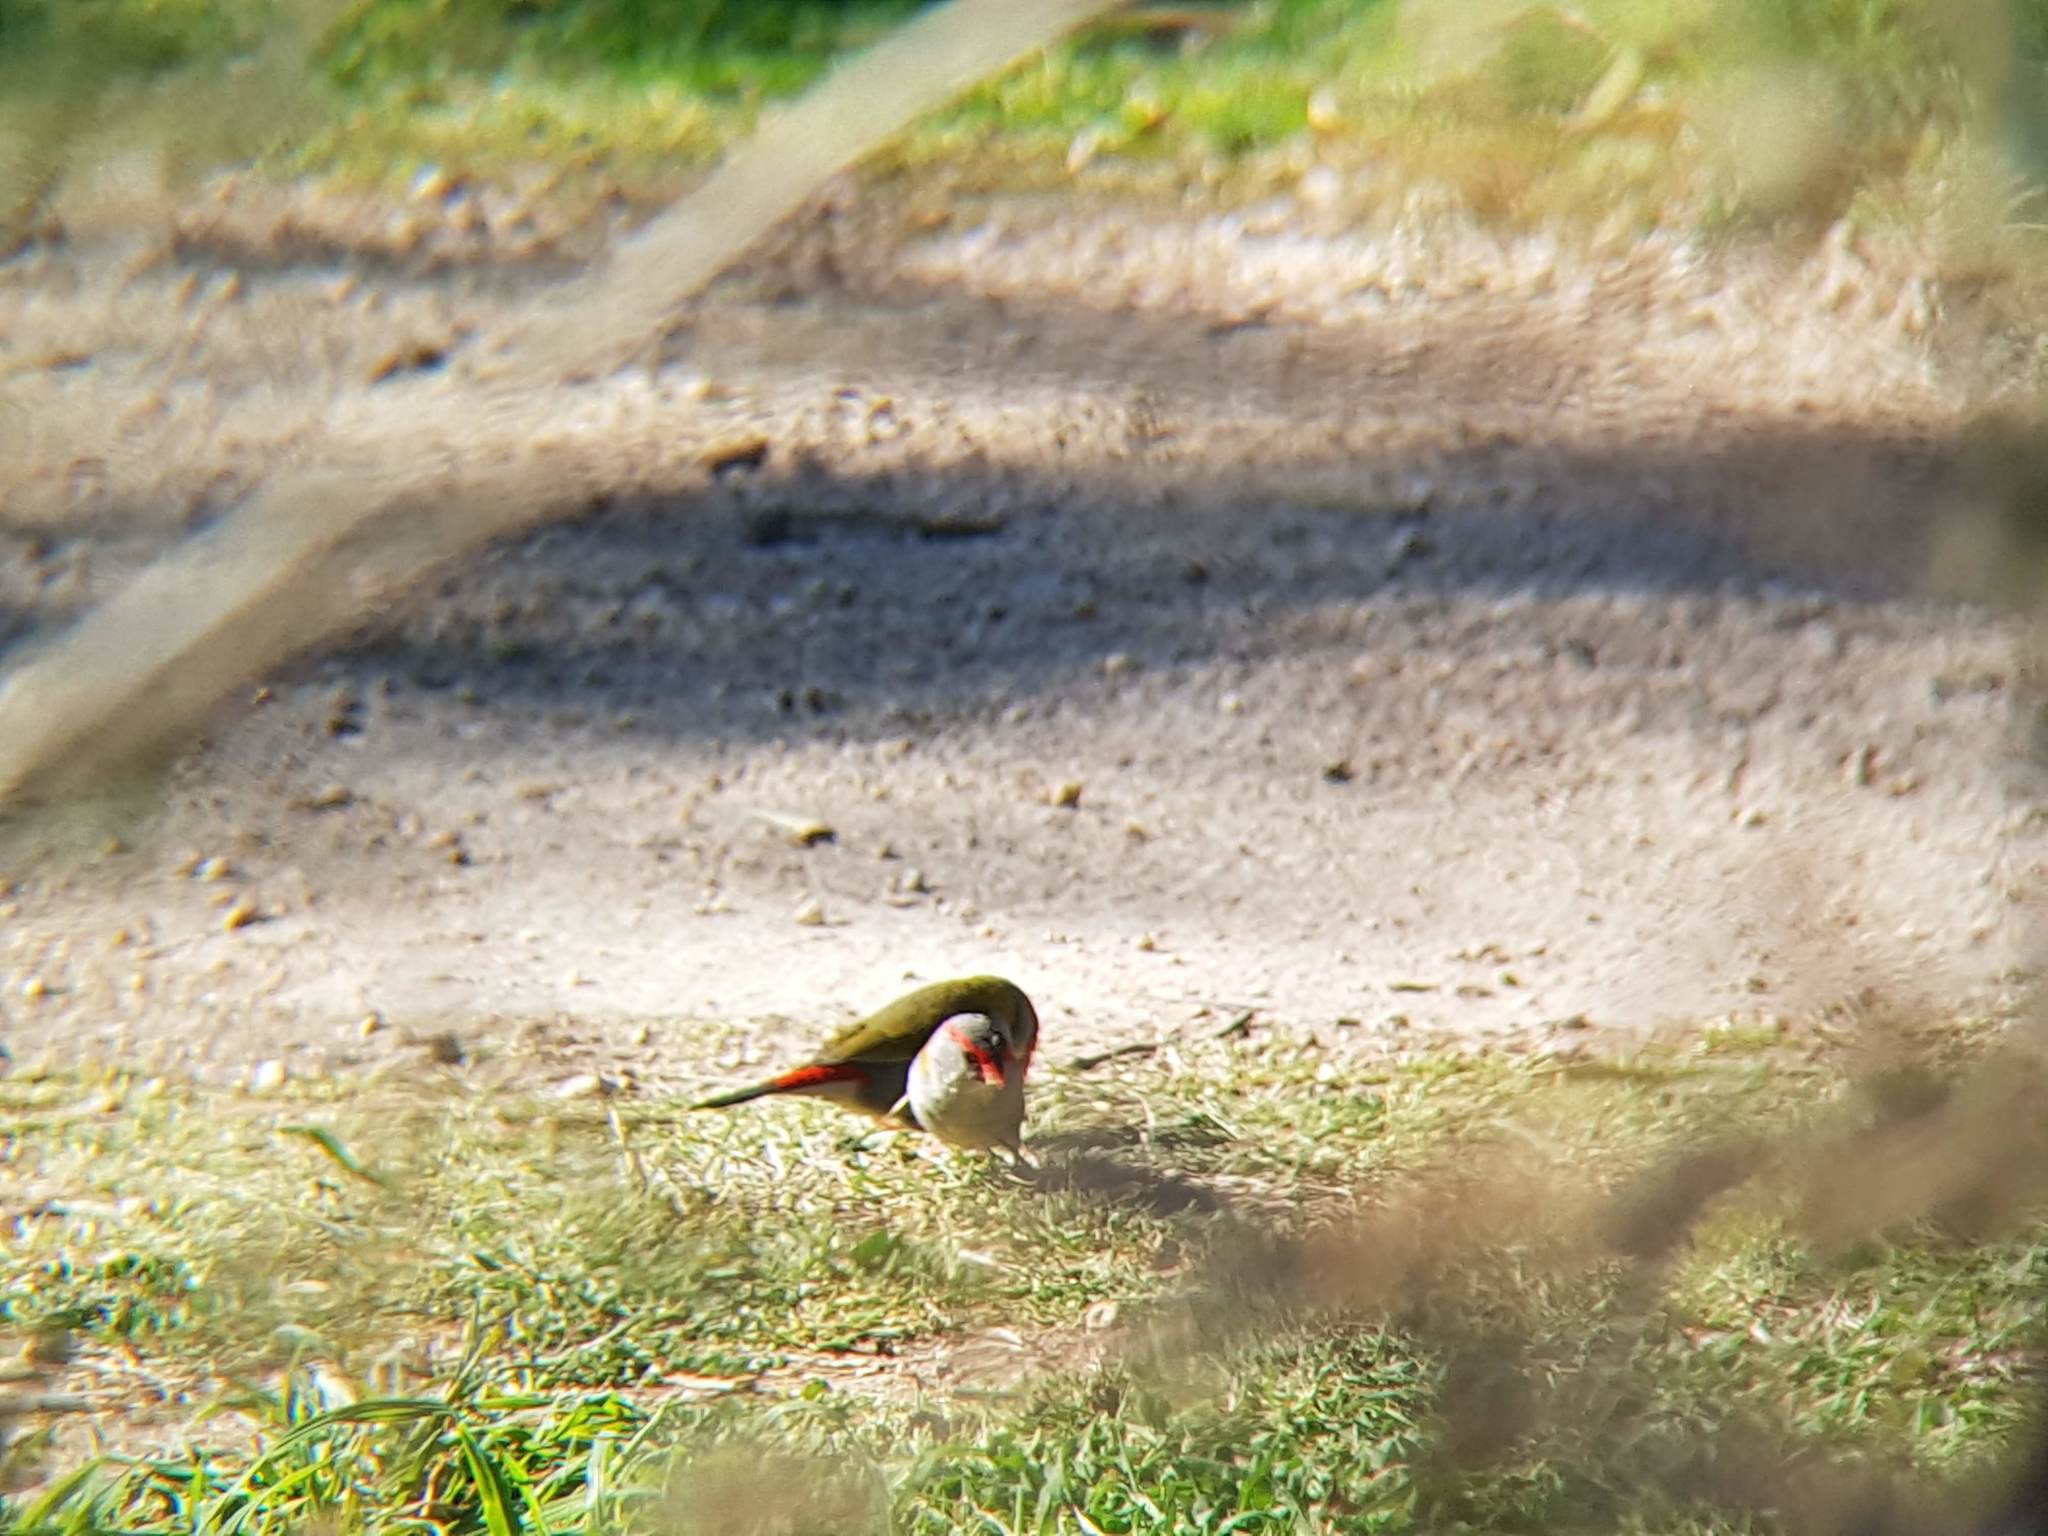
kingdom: Animalia
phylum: Chordata
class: Aves
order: Passeriformes
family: Estrildidae
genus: Neochmia
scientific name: Neochmia temporalis
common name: Red-browed finch
